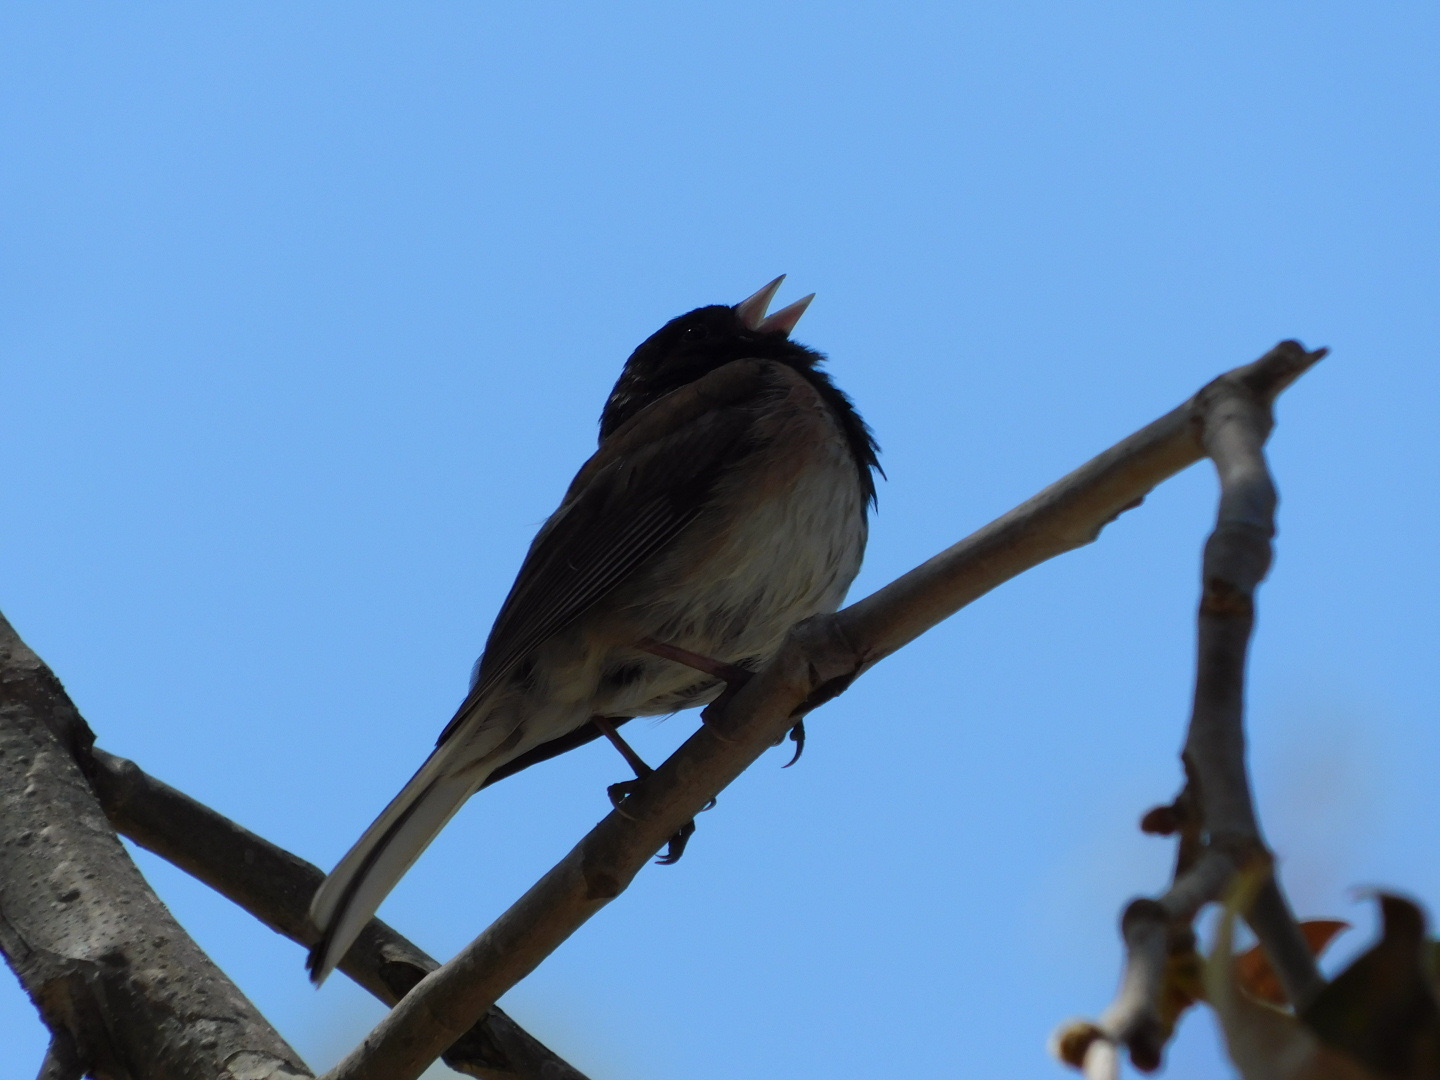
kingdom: Animalia
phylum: Chordata
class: Aves
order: Passeriformes
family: Passerellidae
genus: Junco
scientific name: Junco hyemalis
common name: Dark-eyed junco
